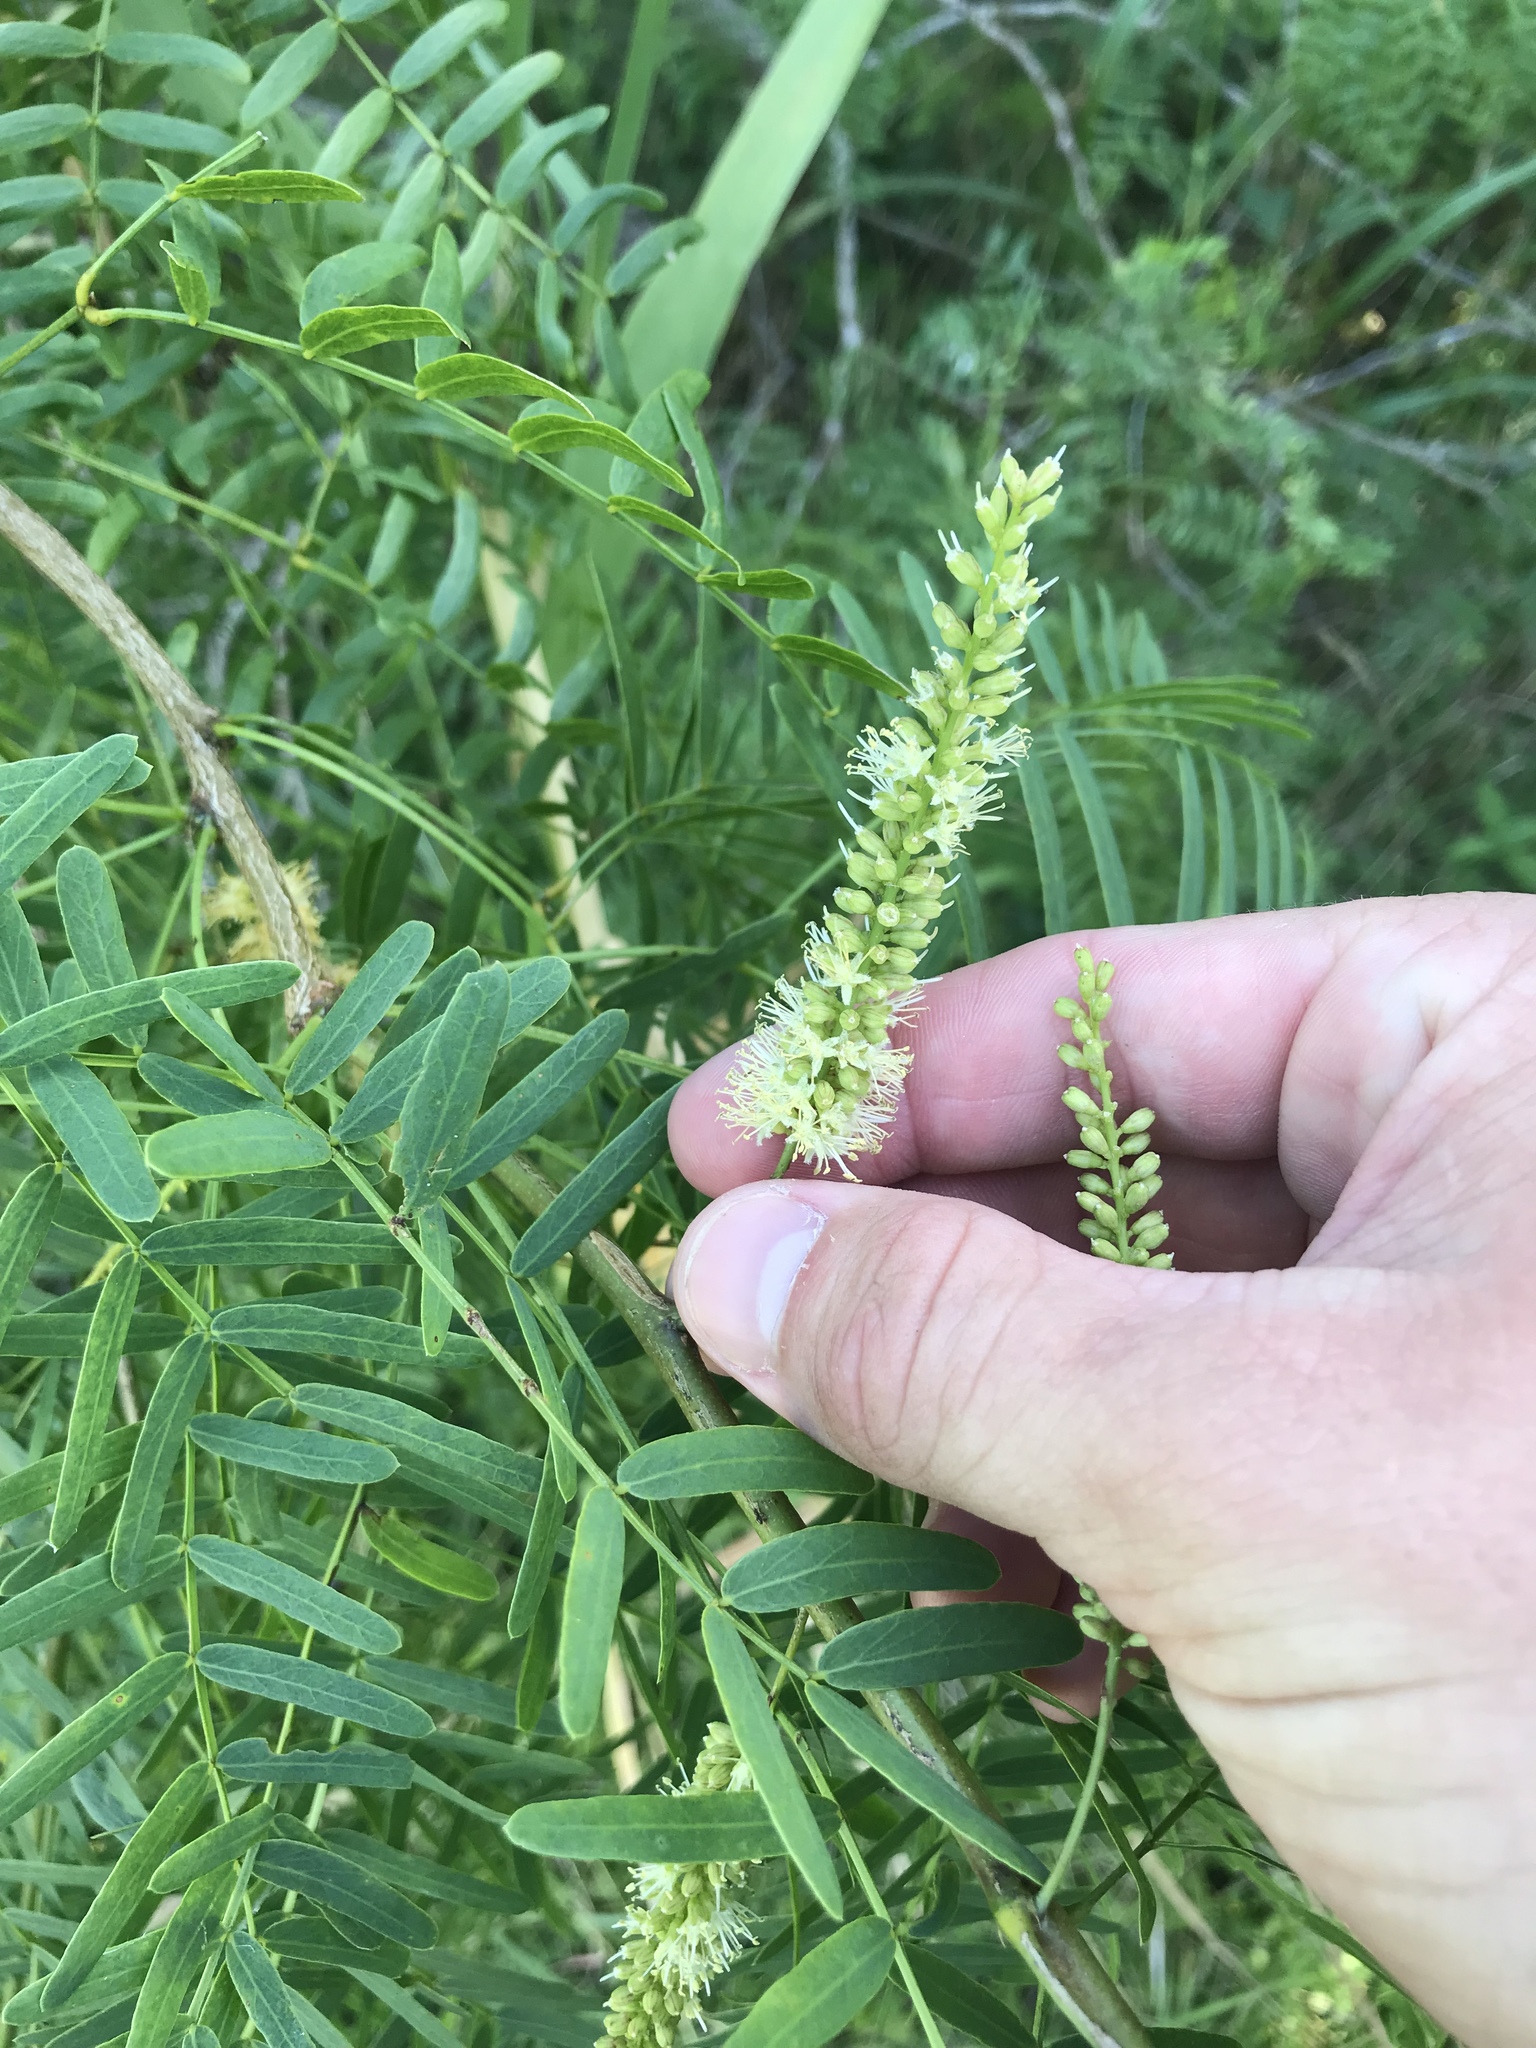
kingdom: Plantae
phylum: Tracheophyta
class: Magnoliopsida
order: Fabales
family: Fabaceae
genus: Prosopis
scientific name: Prosopis glandulosa
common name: Honey mesquite
